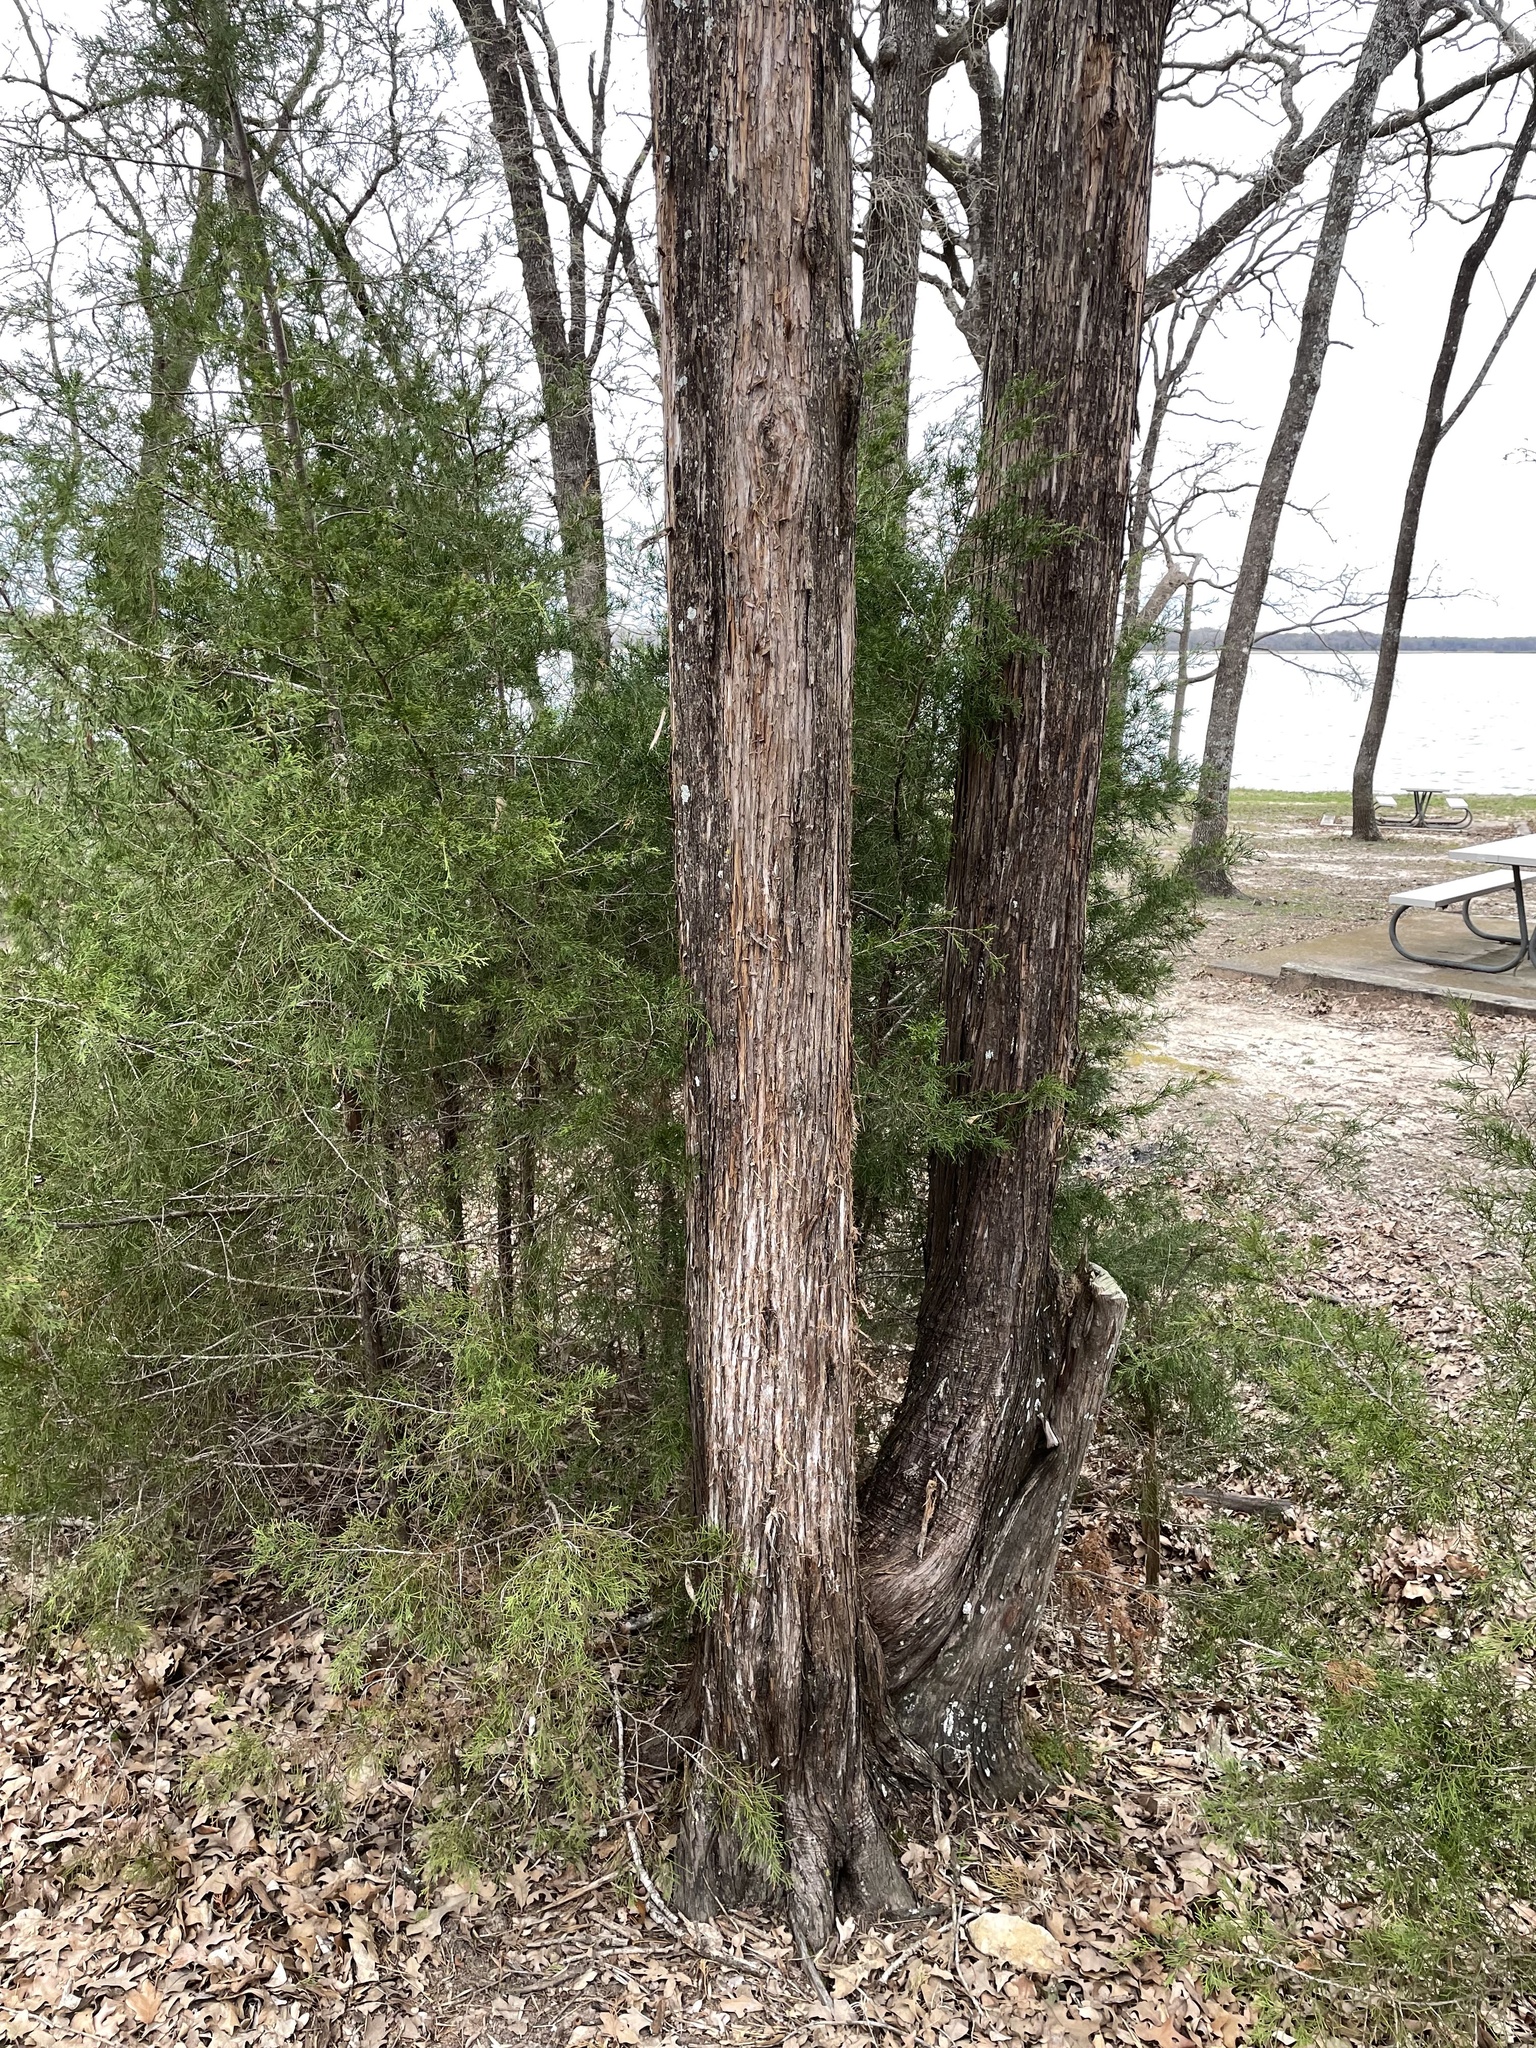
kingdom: Plantae
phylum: Tracheophyta
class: Pinopsida
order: Pinales
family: Cupressaceae
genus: Juniperus
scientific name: Juniperus virginiana
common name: Red juniper
